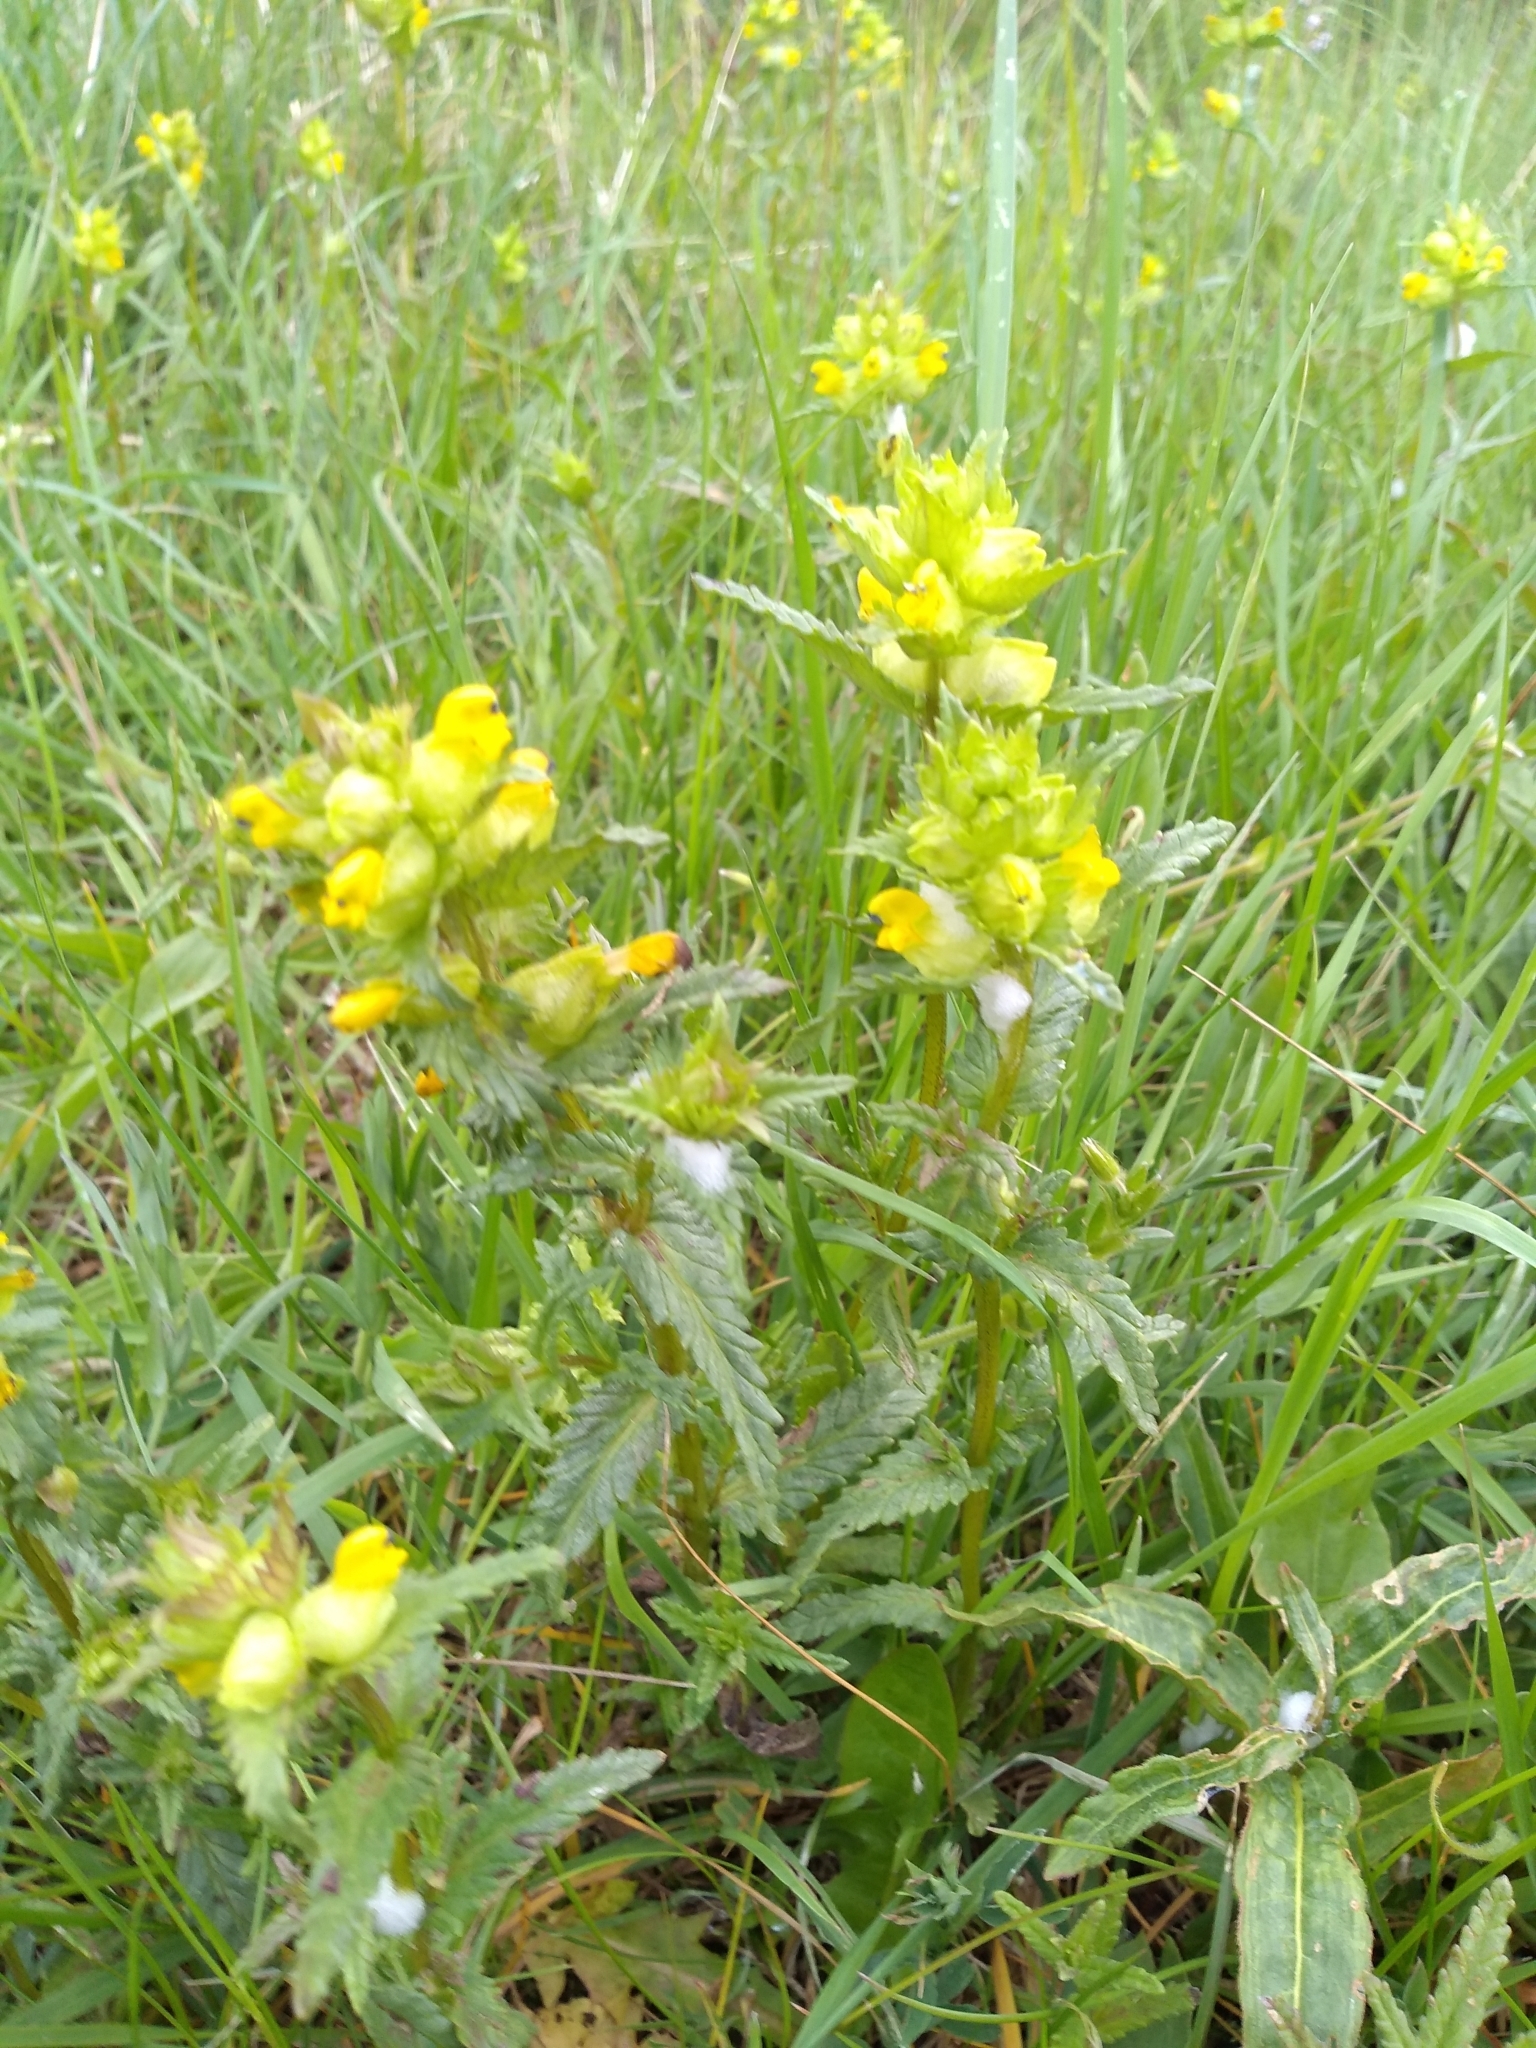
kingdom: Plantae
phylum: Tracheophyta
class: Magnoliopsida
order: Lamiales
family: Orobanchaceae
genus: Rhinanthus
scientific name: Rhinanthus minor
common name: Yellow-rattle
